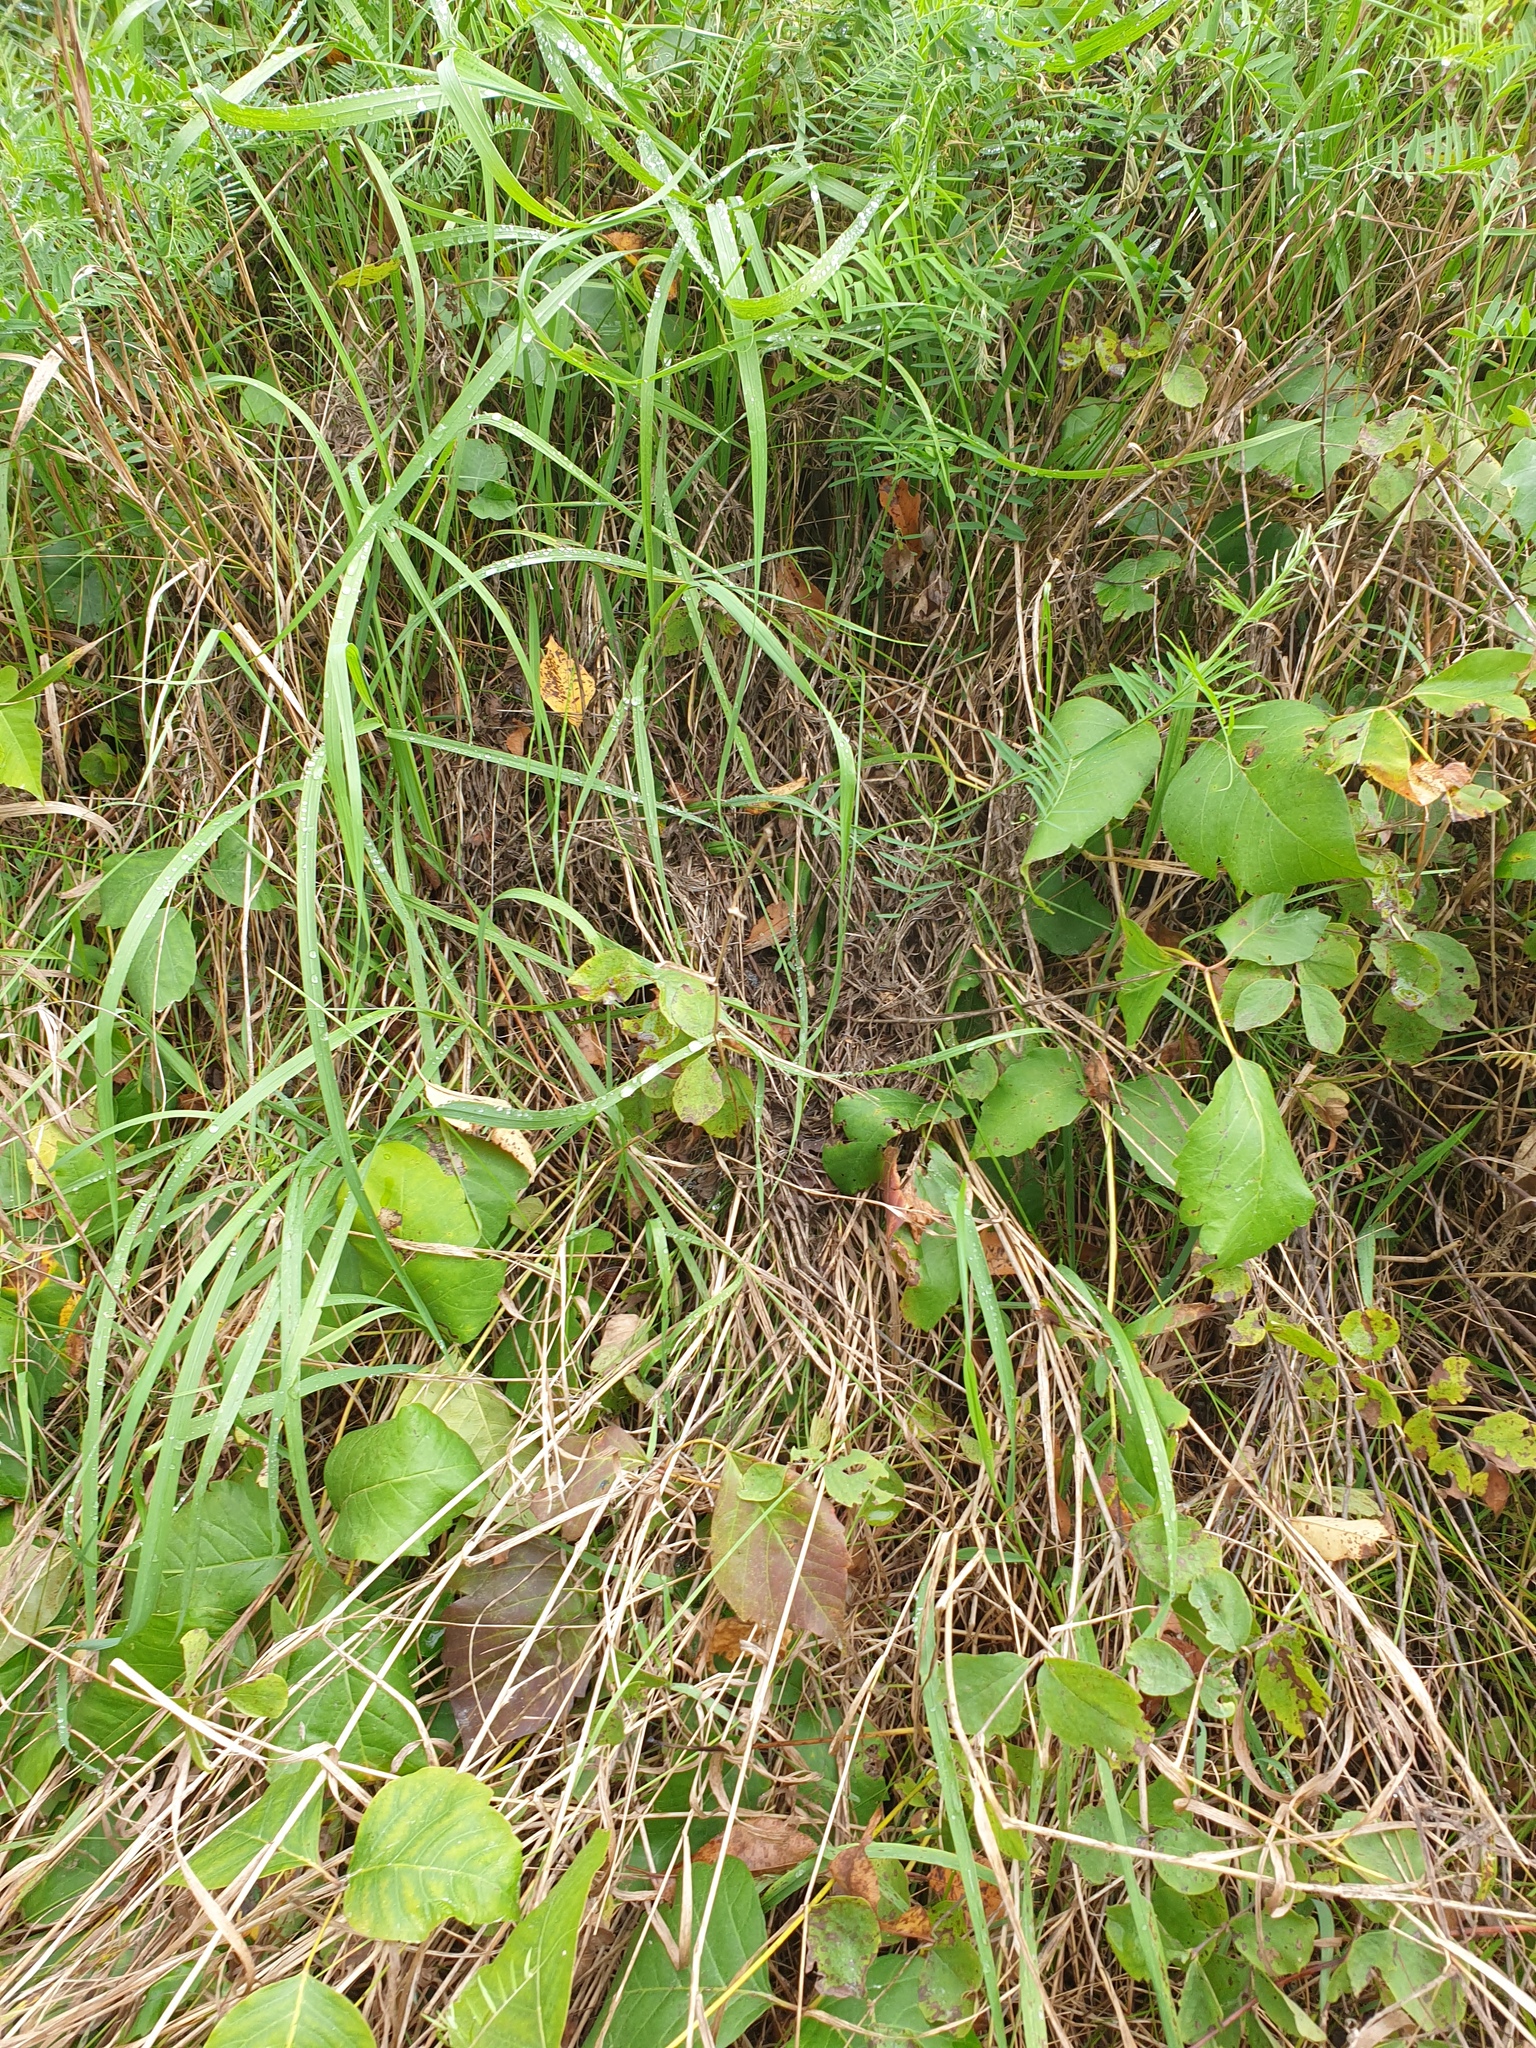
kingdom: Plantae
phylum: Tracheophyta
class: Magnoliopsida
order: Sapindales
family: Anacardiaceae
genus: Toxicodendron
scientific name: Toxicodendron radicans
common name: Poison ivy
